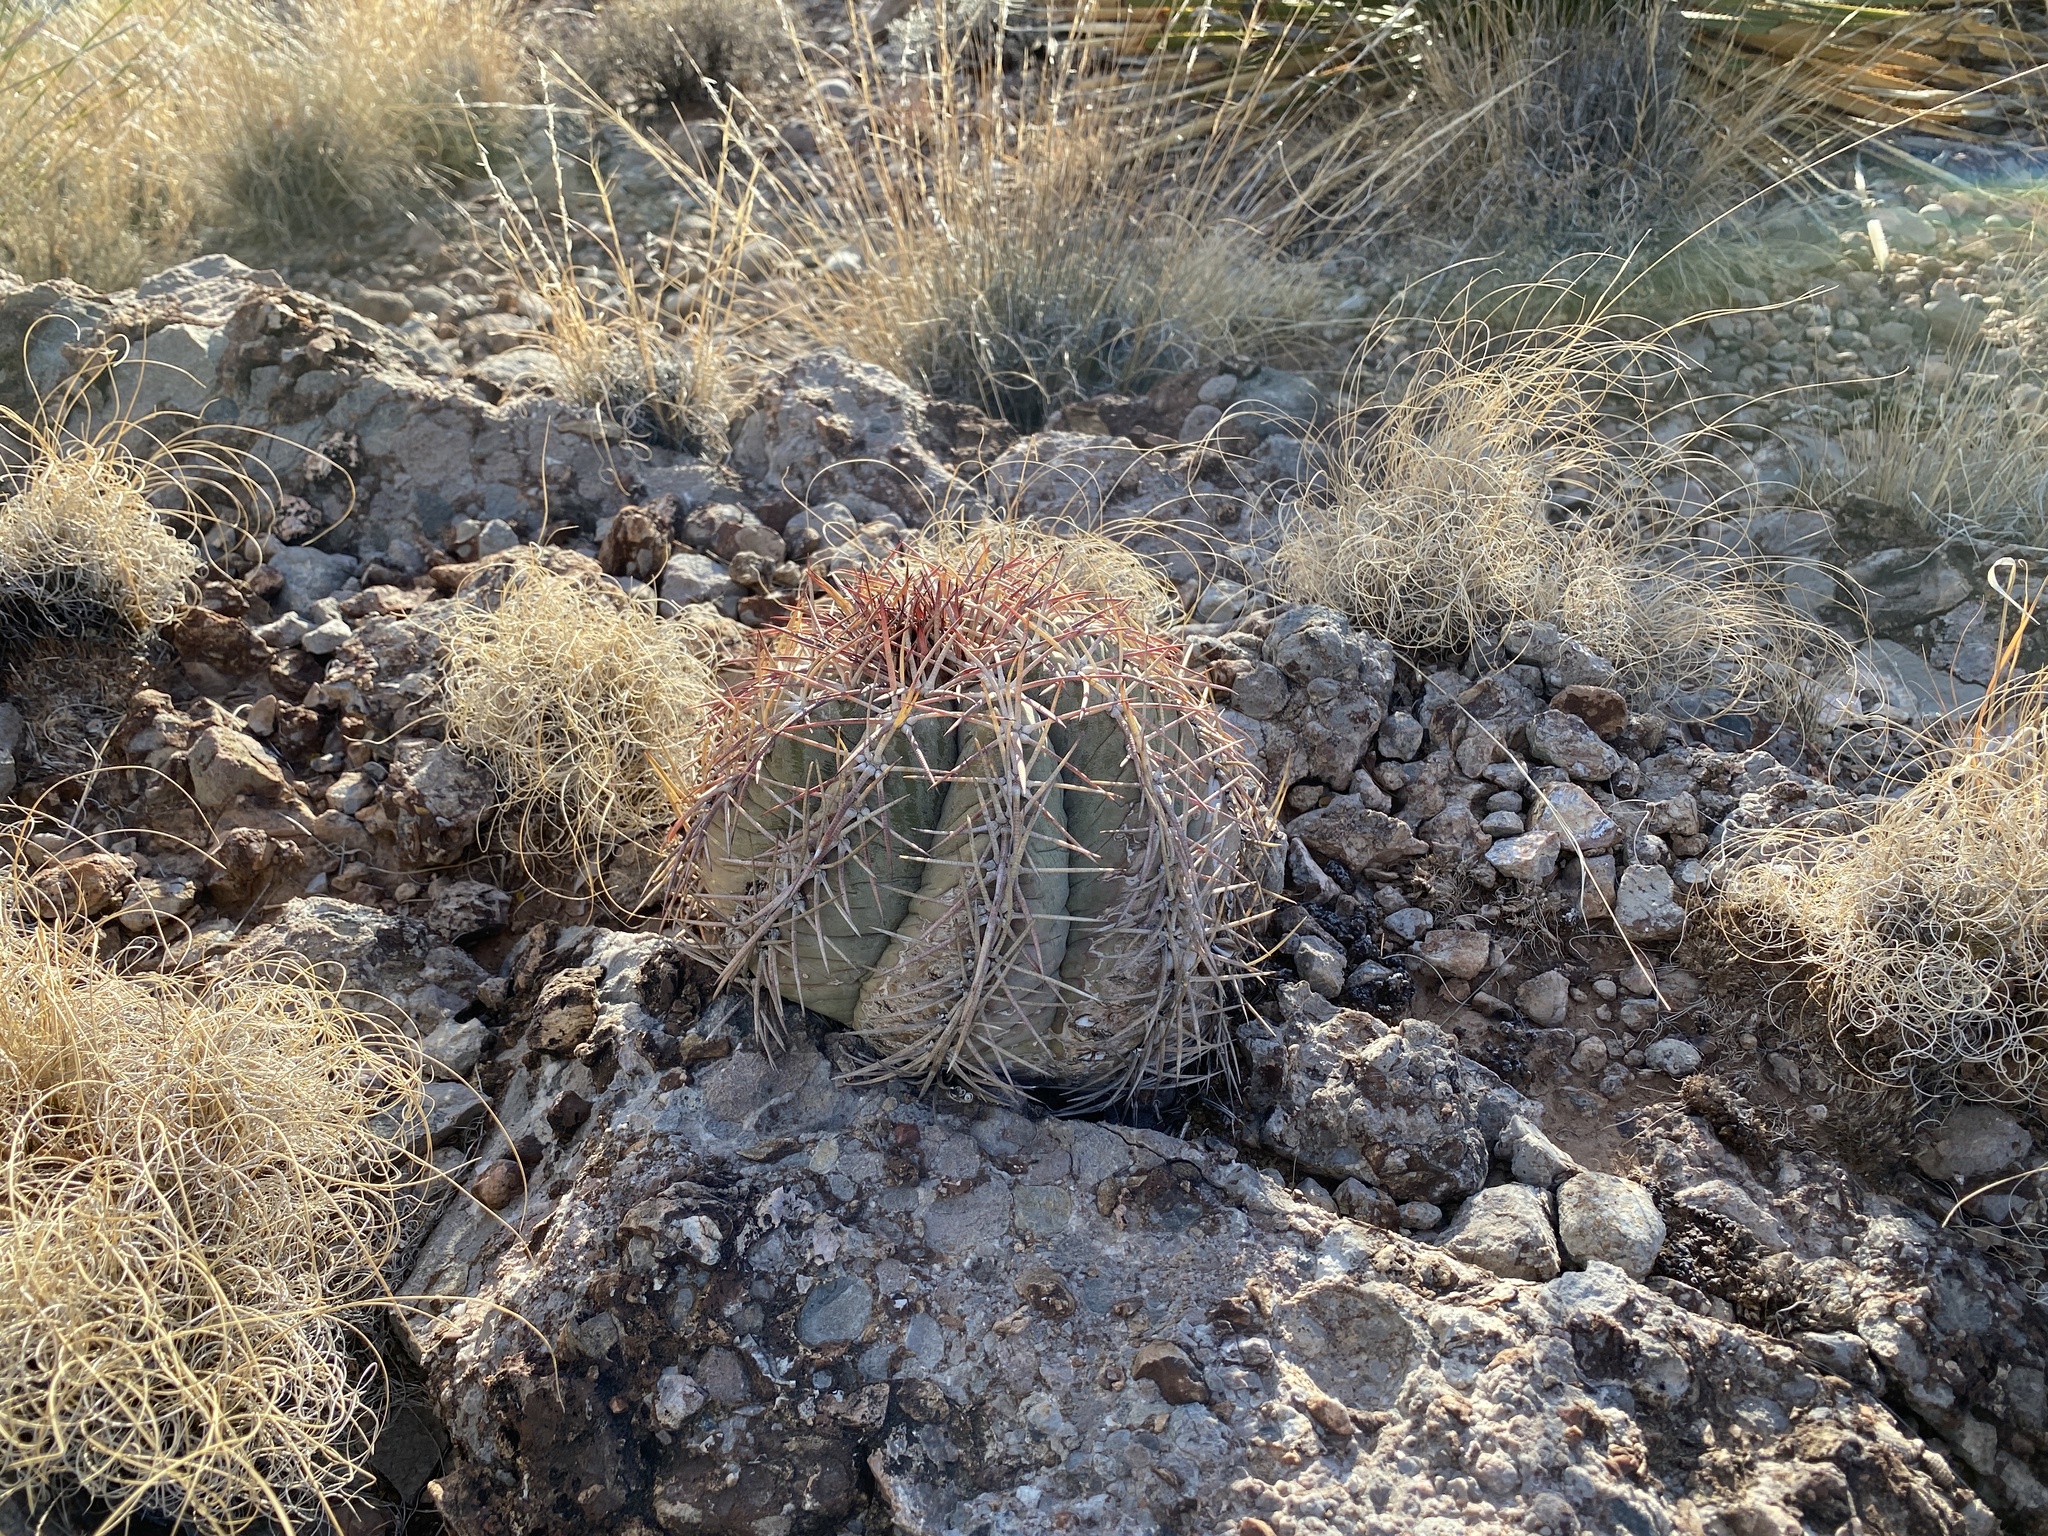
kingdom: Plantae
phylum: Tracheophyta
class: Magnoliopsida
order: Caryophyllales
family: Cactaceae
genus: Echinocactus
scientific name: Echinocactus horizonthalonius
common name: Devilshead
